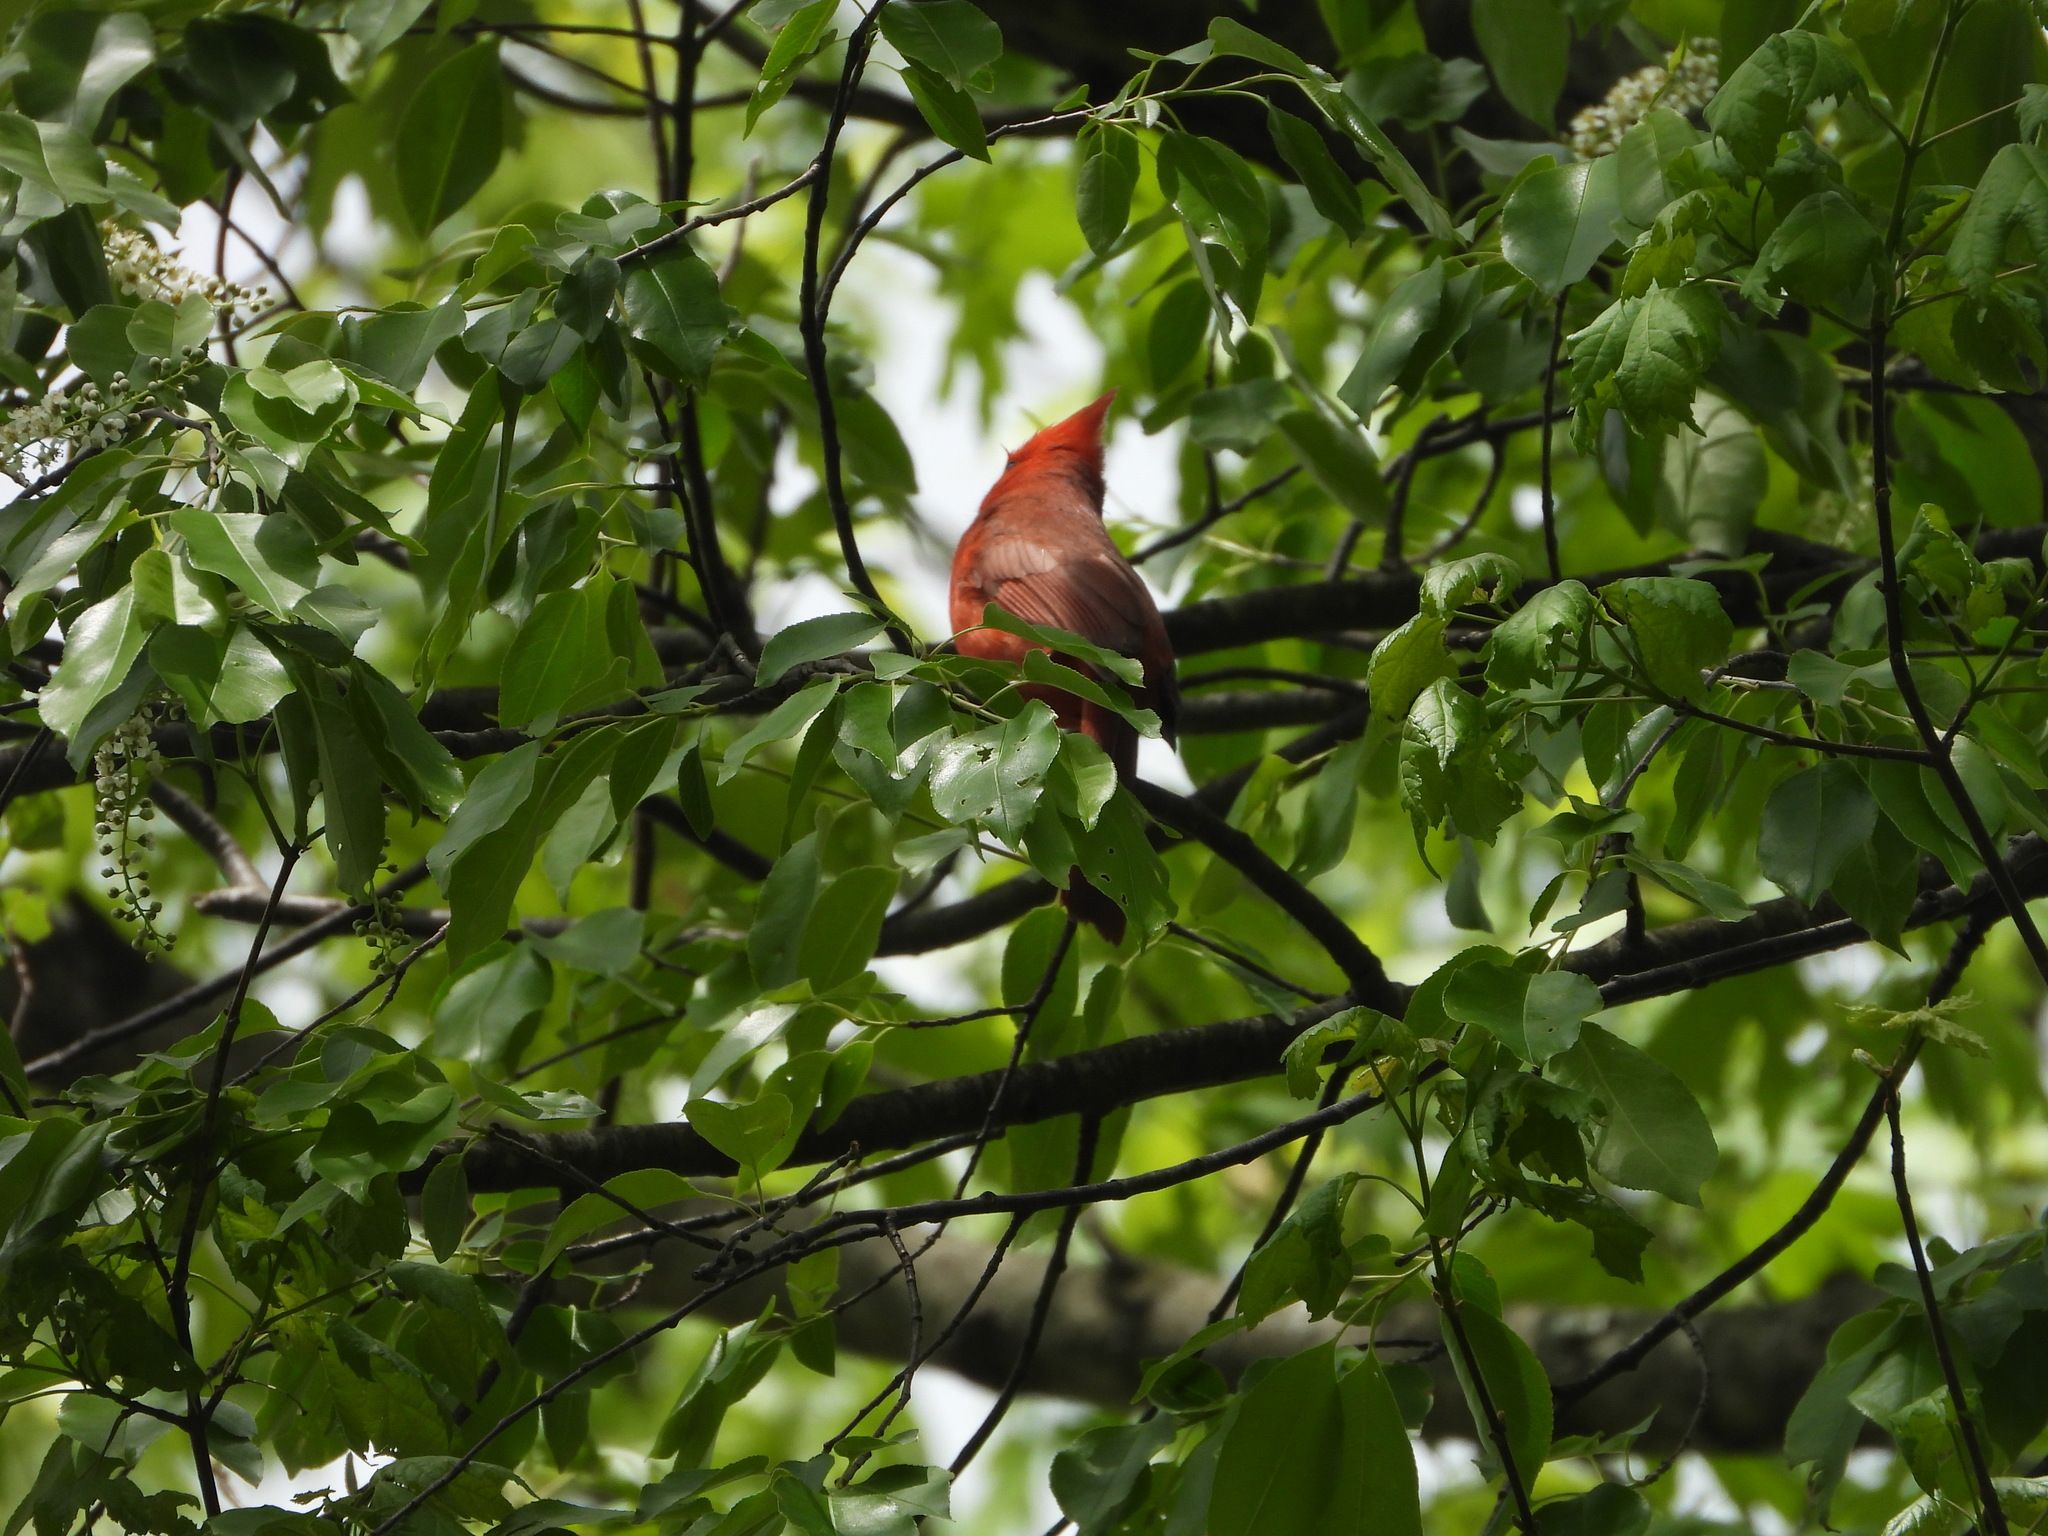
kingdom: Animalia
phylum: Chordata
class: Aves
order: Passeriformes
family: Cardinalidae
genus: Cardinalis
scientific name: Cardinalis cardinalis
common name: Northern cardinal
